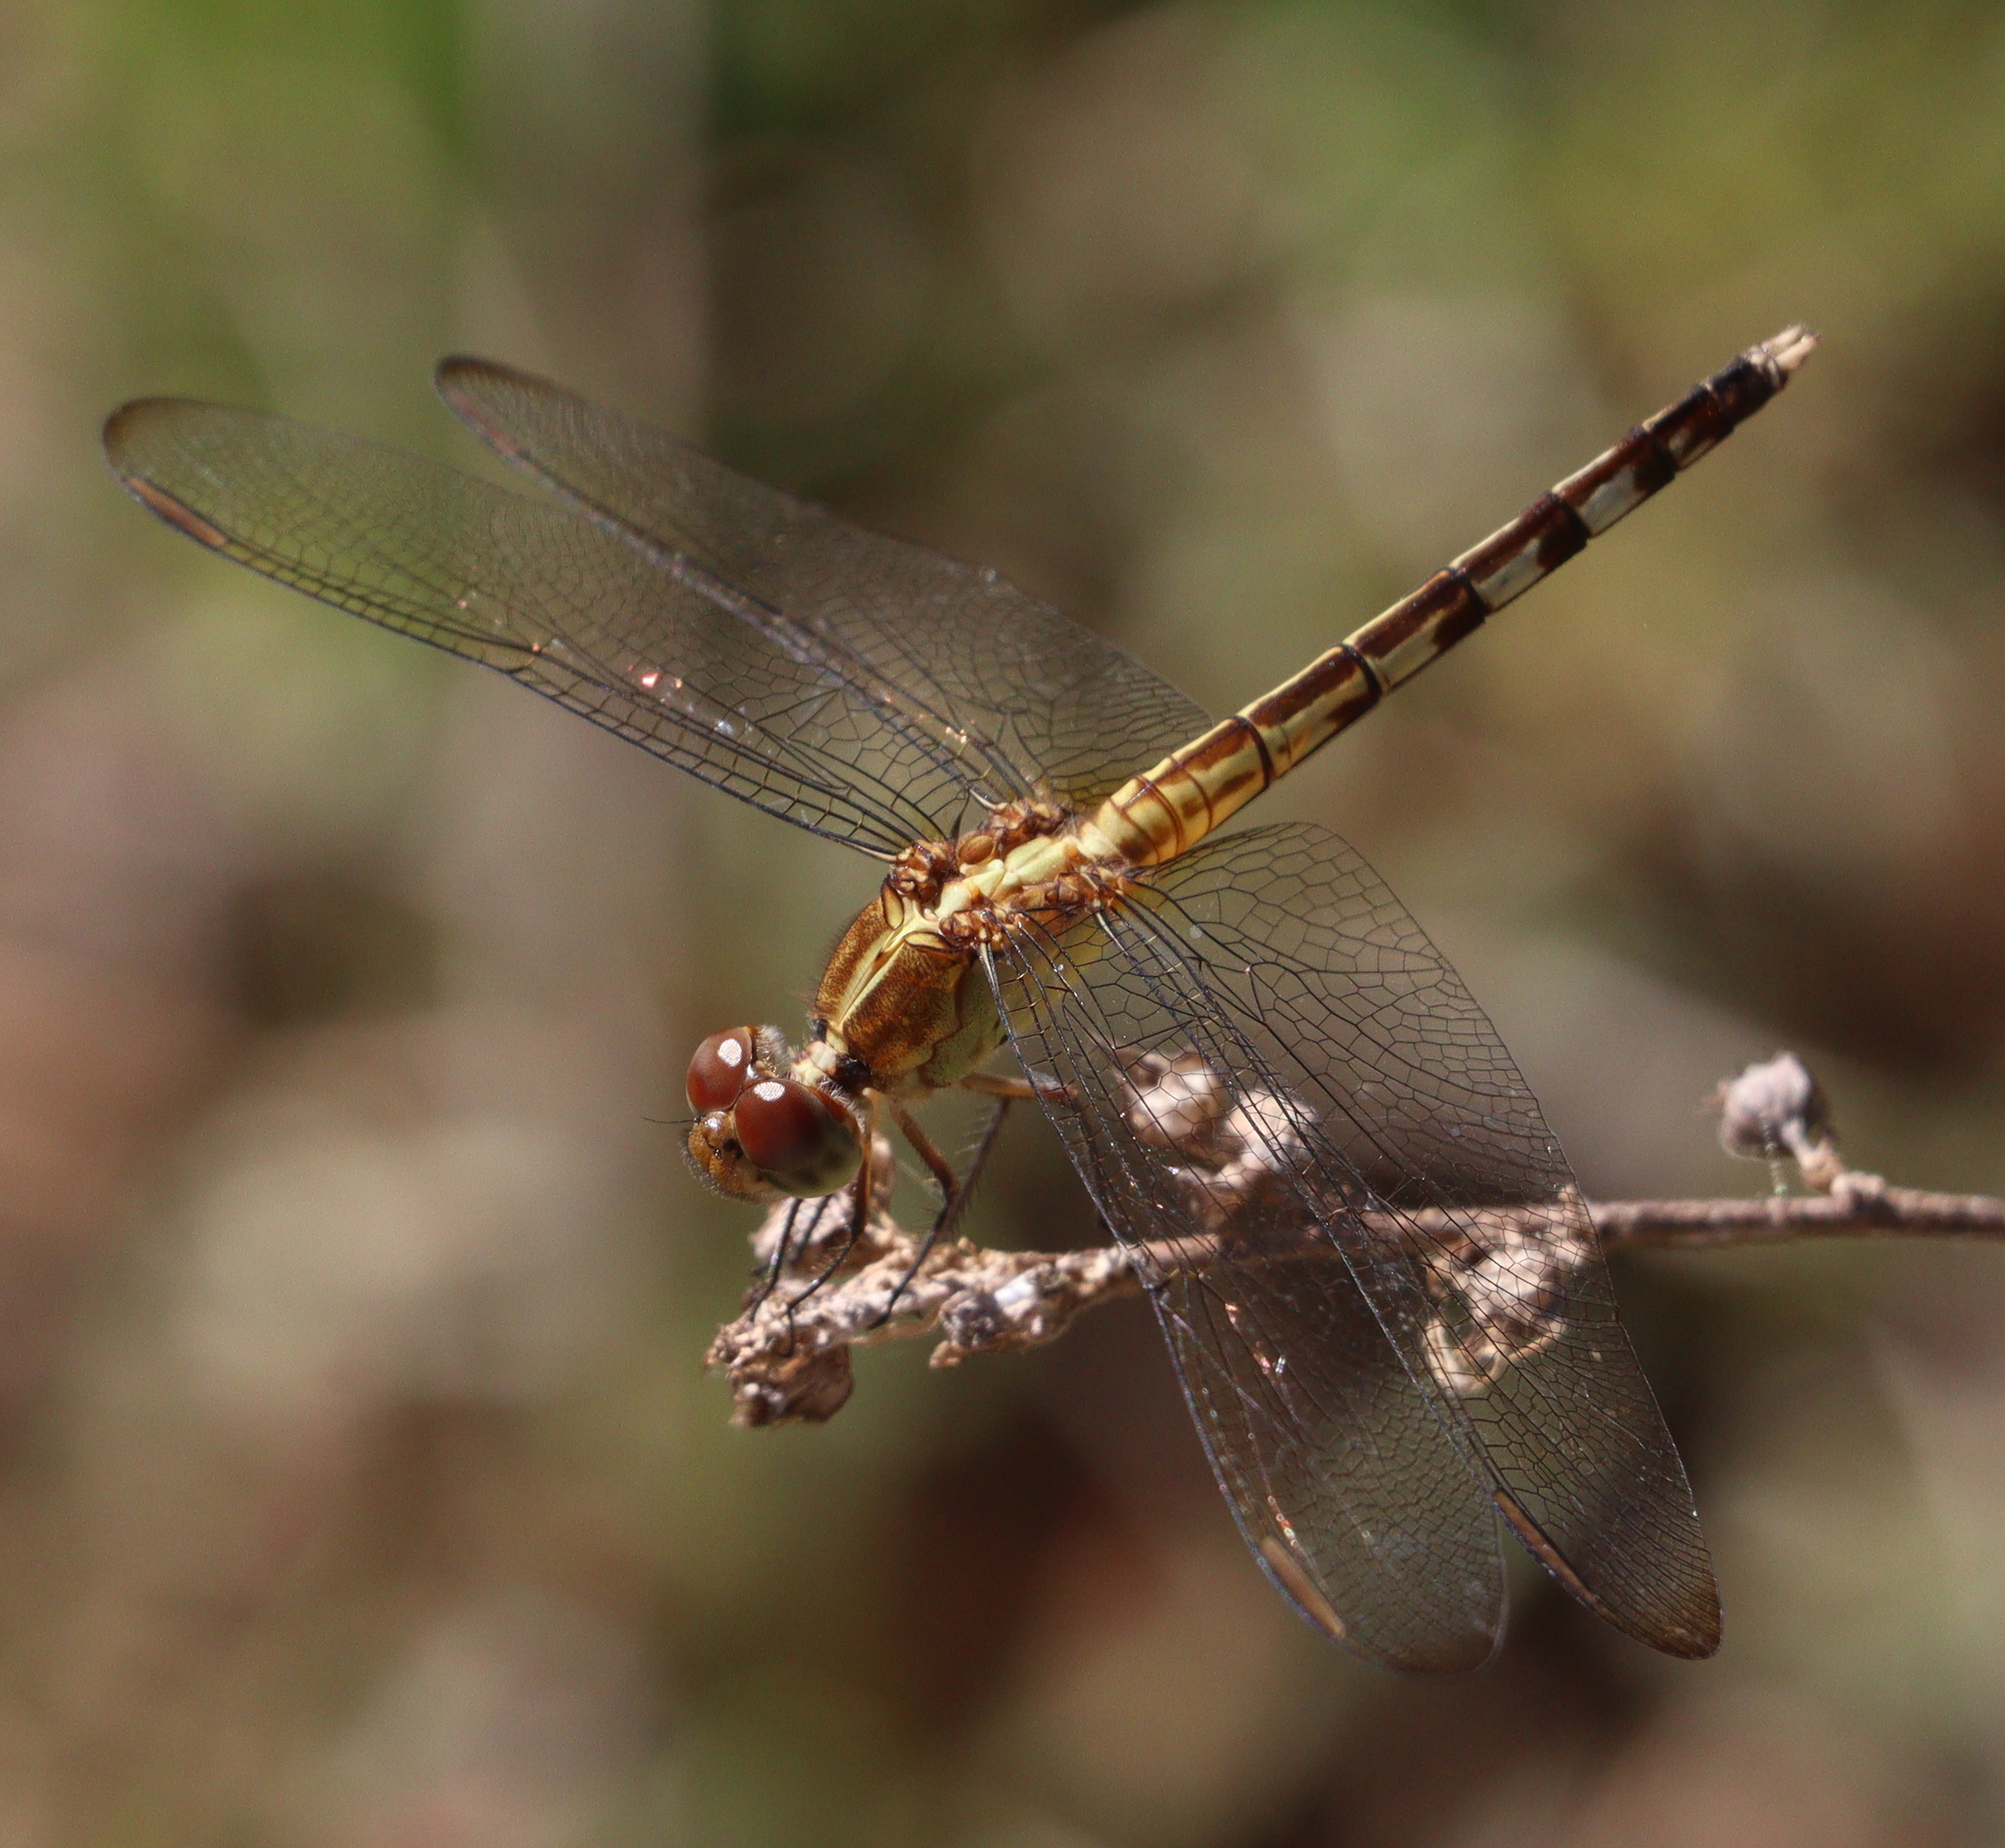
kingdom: Animalia
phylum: Arthropoda
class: Insecta
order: Odonata
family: Libellulidae
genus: Erythrodiplax
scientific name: Erythrodiplax umbrata
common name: Band-winged dragonlet
